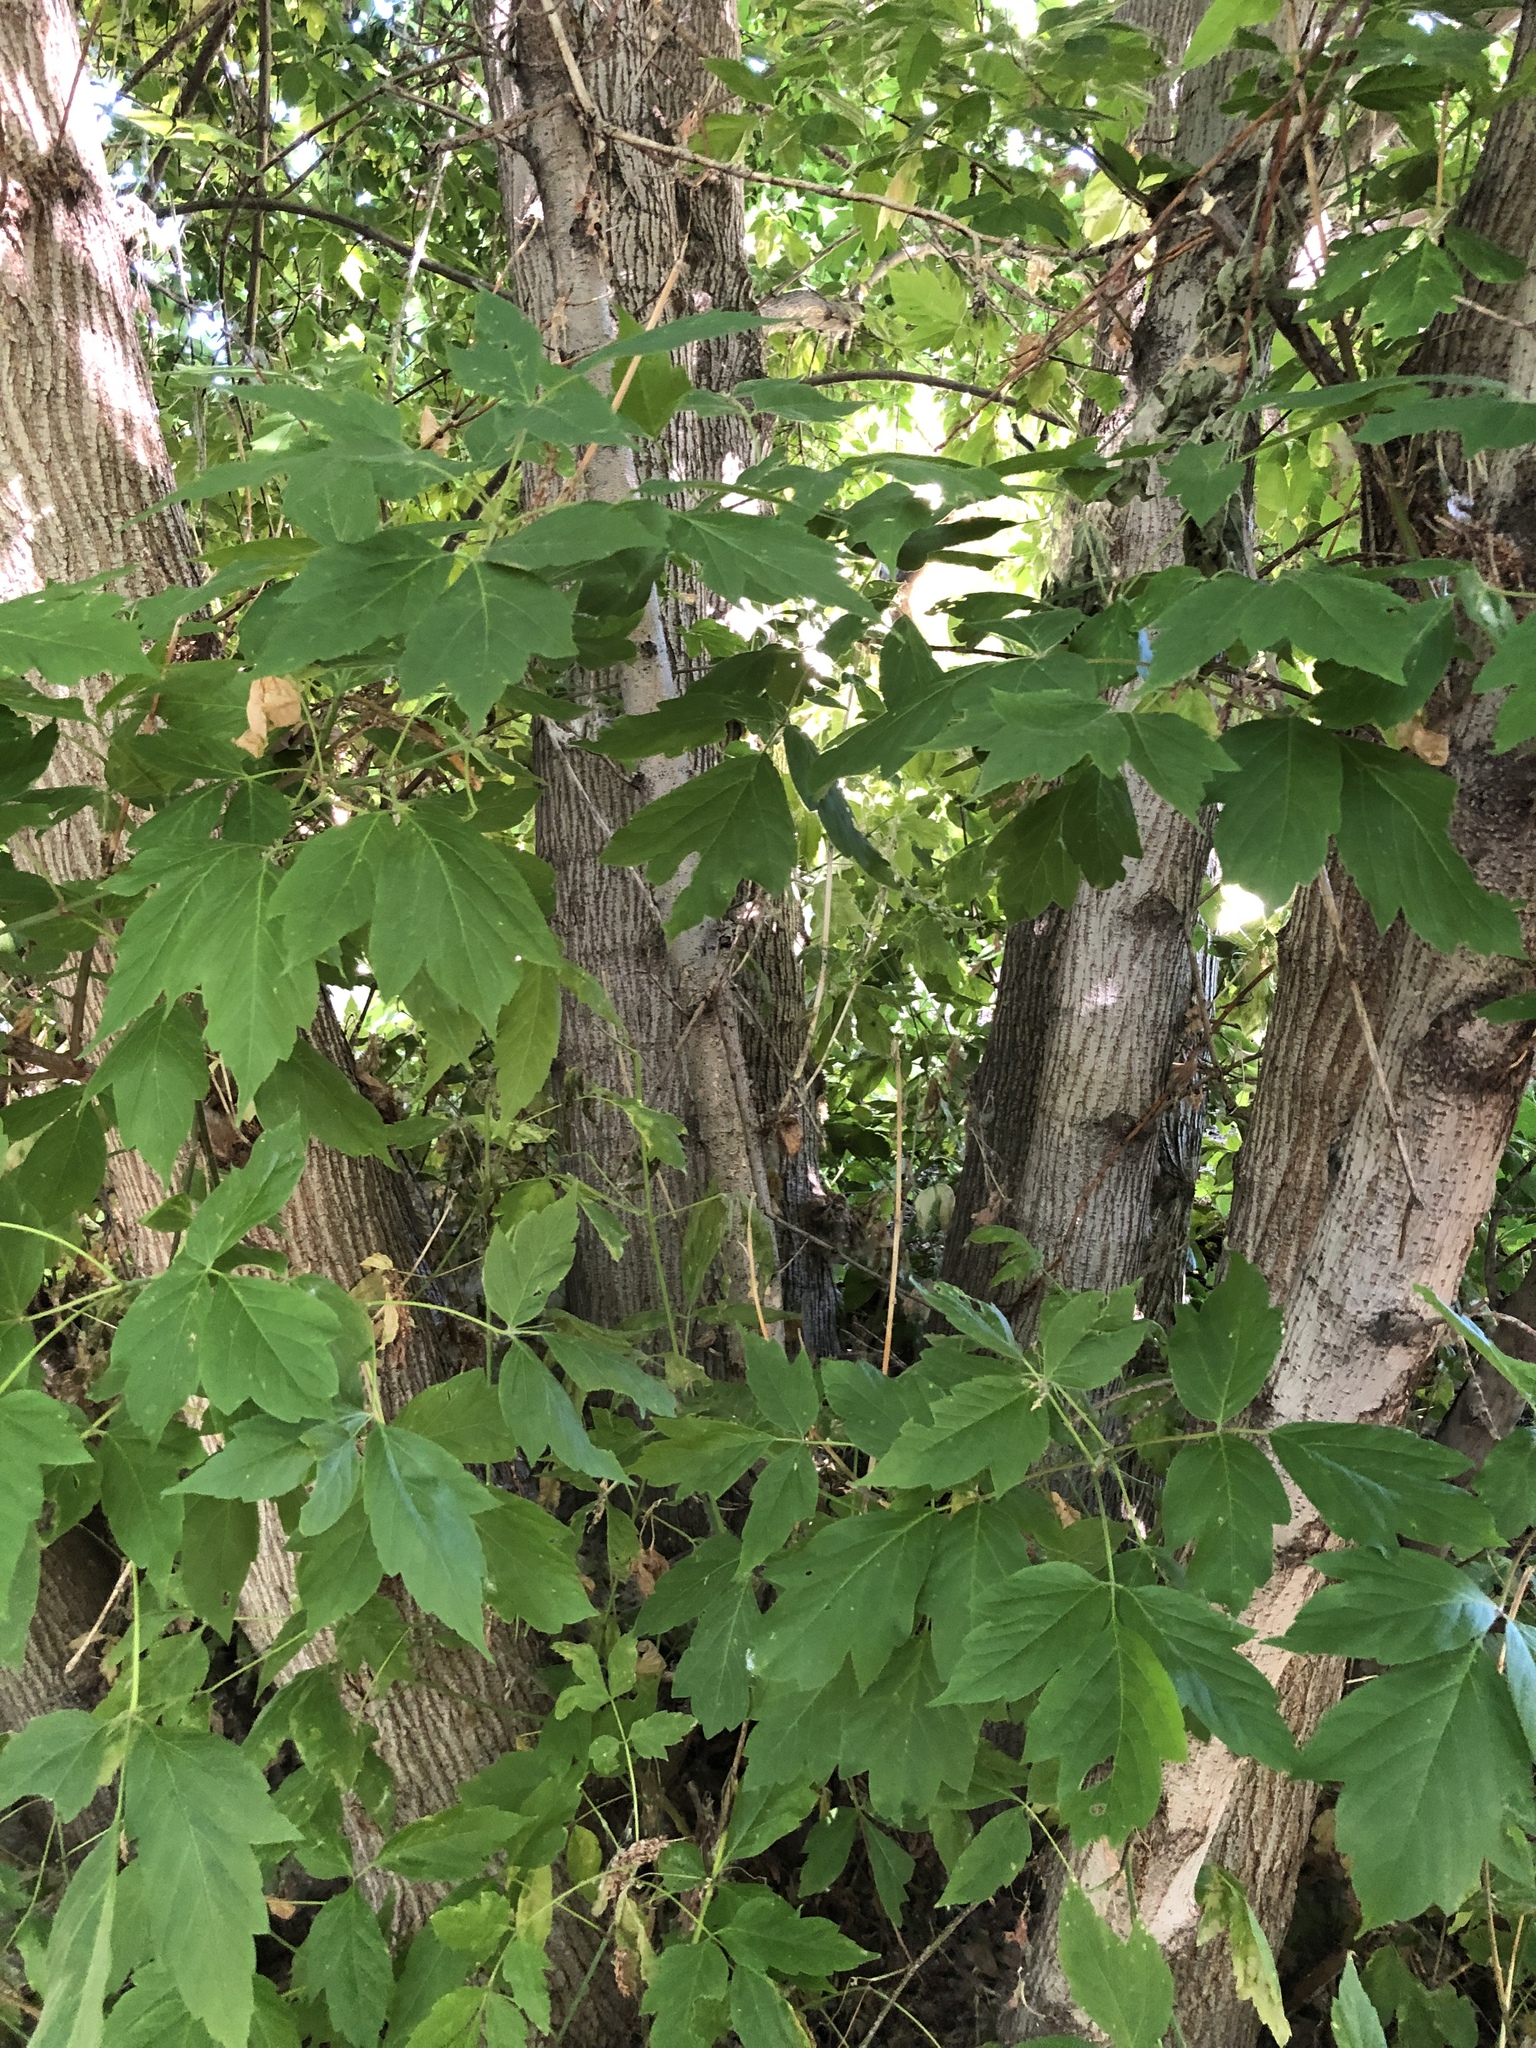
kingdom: Plantae
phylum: Tracheophyta
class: Magnoliopsida
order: Sapindales
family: Sapindaceae
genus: Acer
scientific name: Acer negundo
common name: Ashleaf maple
